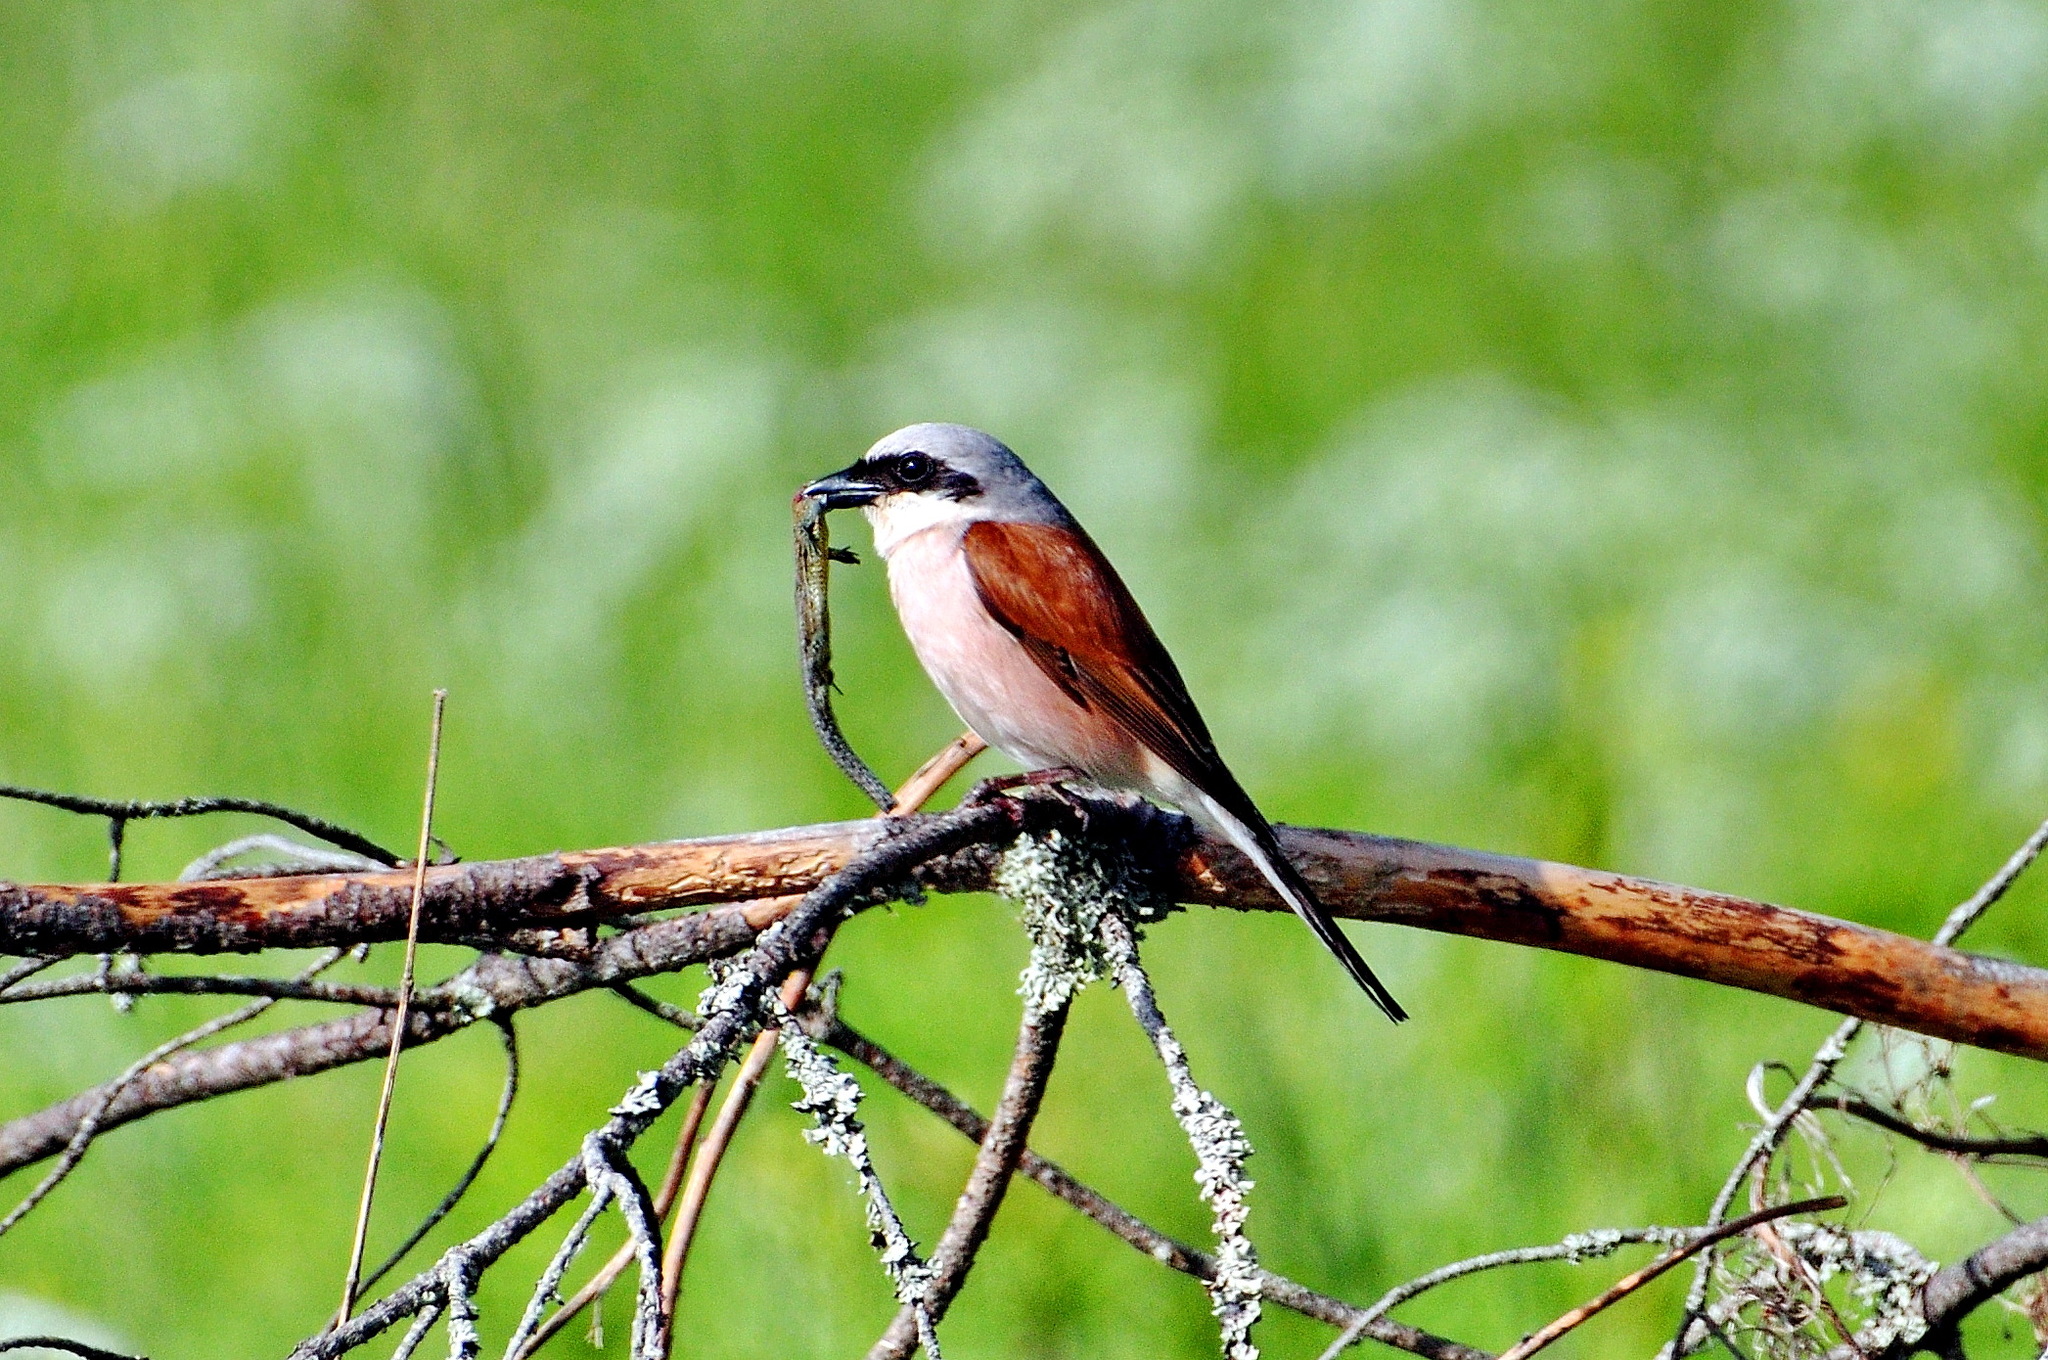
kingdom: Animalia
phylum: Chordata
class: Aves
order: Passeriformes
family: Laniidae
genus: Lanius
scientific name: Lanius collurio
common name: Red-backed shrike
